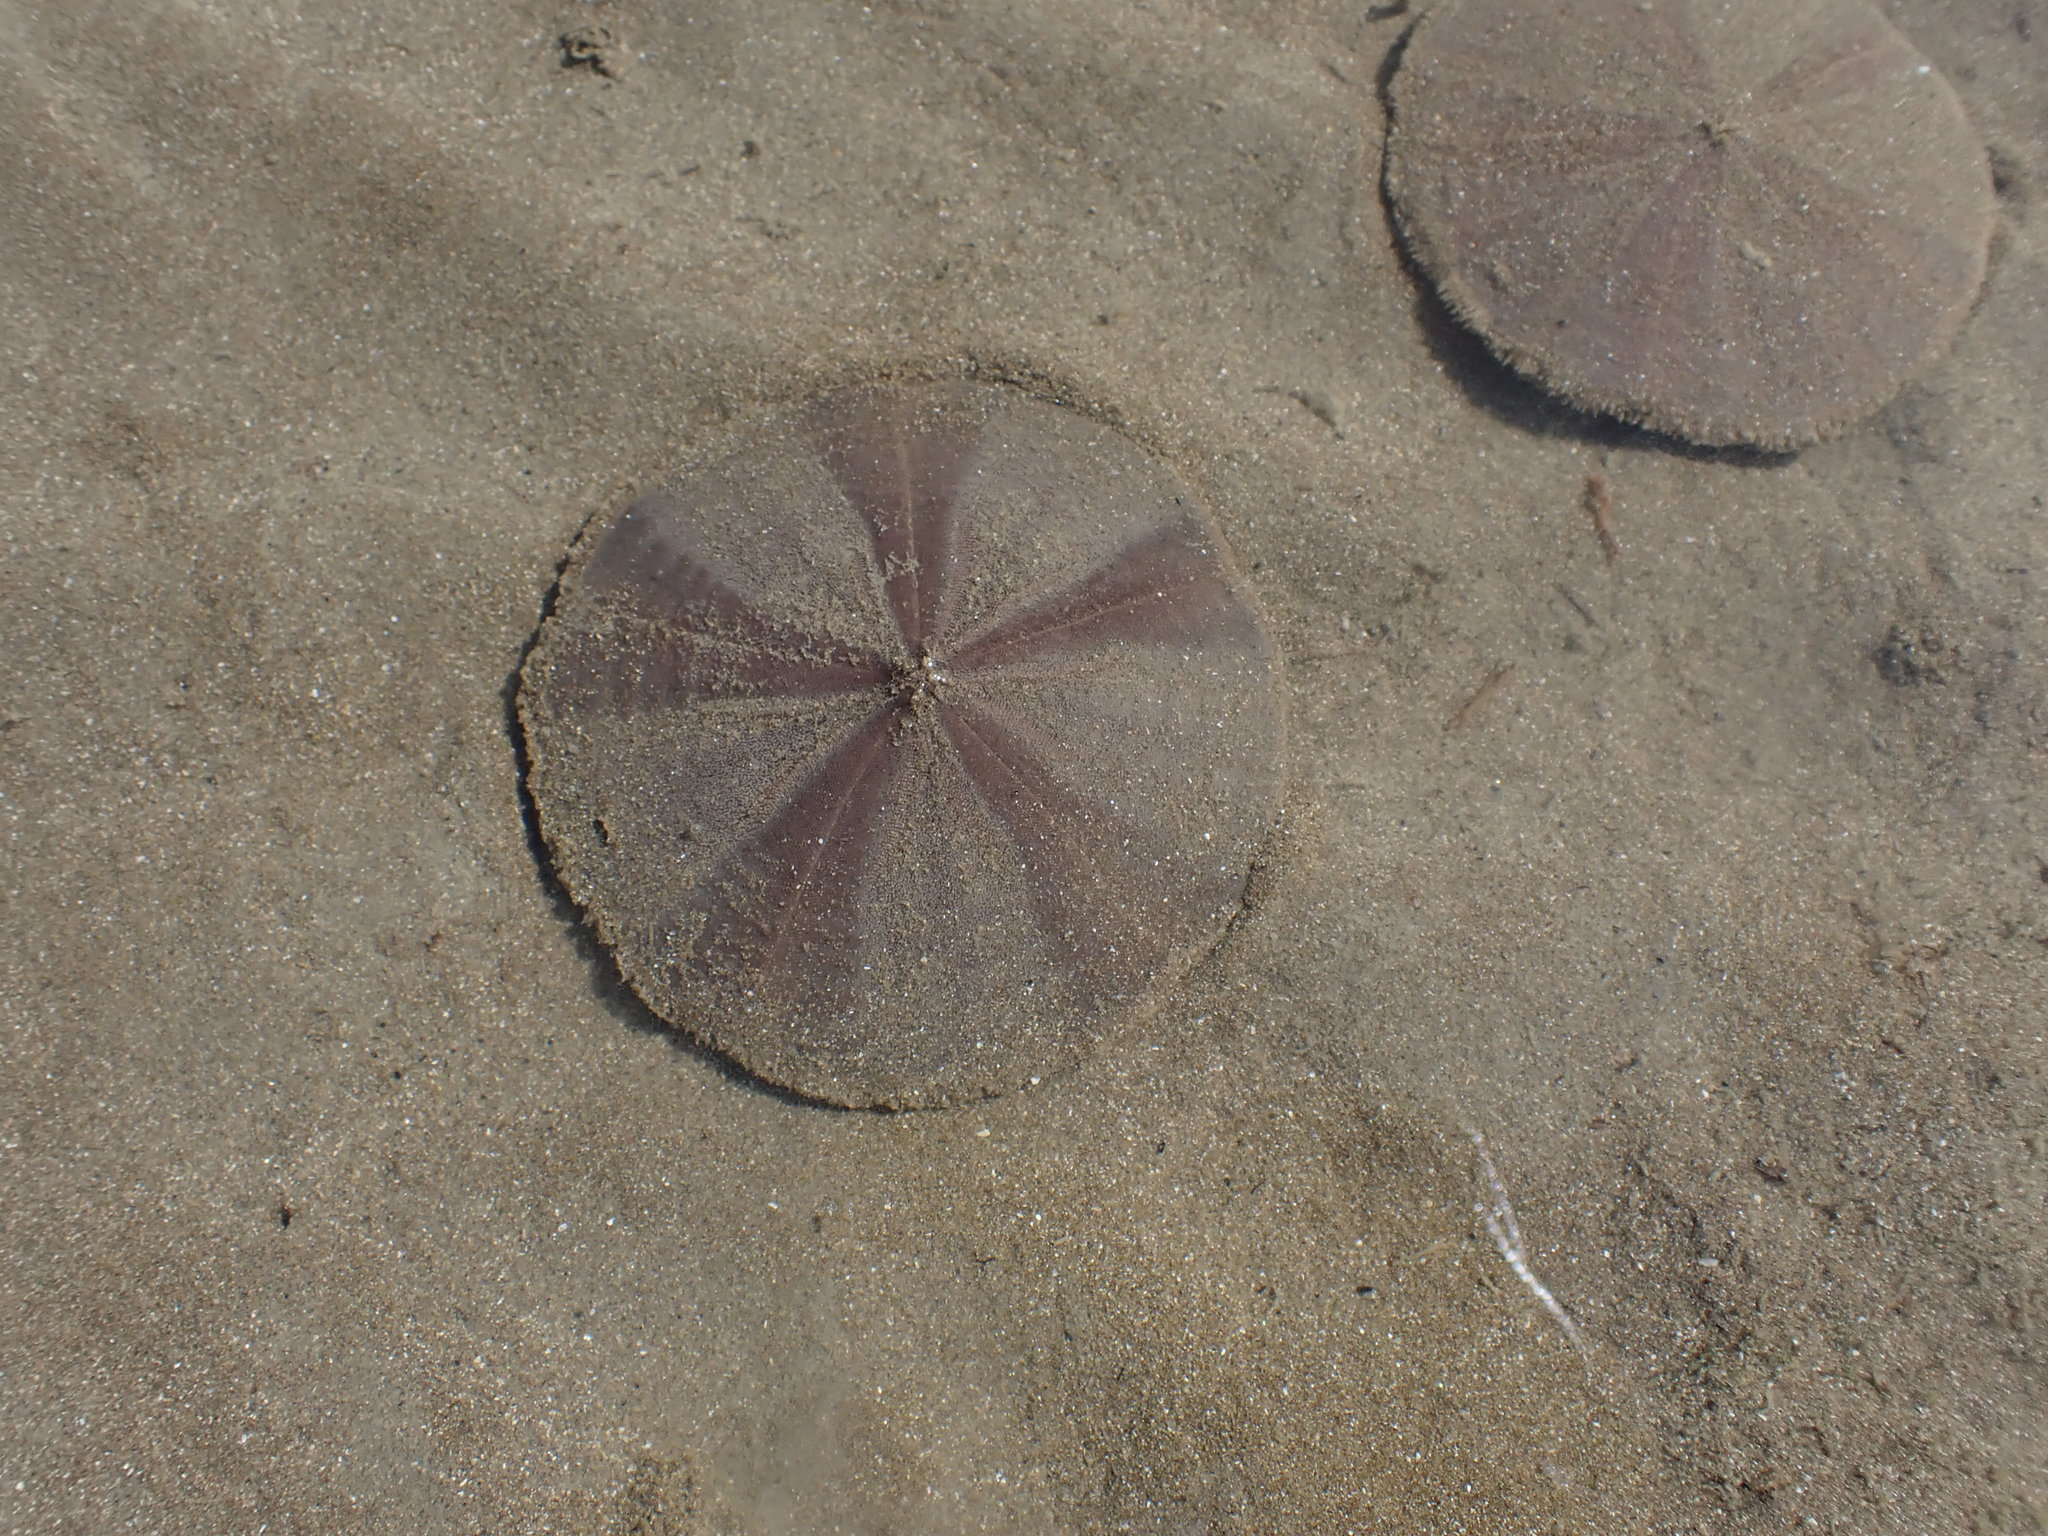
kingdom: Animalia
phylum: Echinodermata
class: Echinoidea
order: Clypeasteroida
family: Clypeasteridae
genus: Fellaster
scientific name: Fellaster zelandiae
